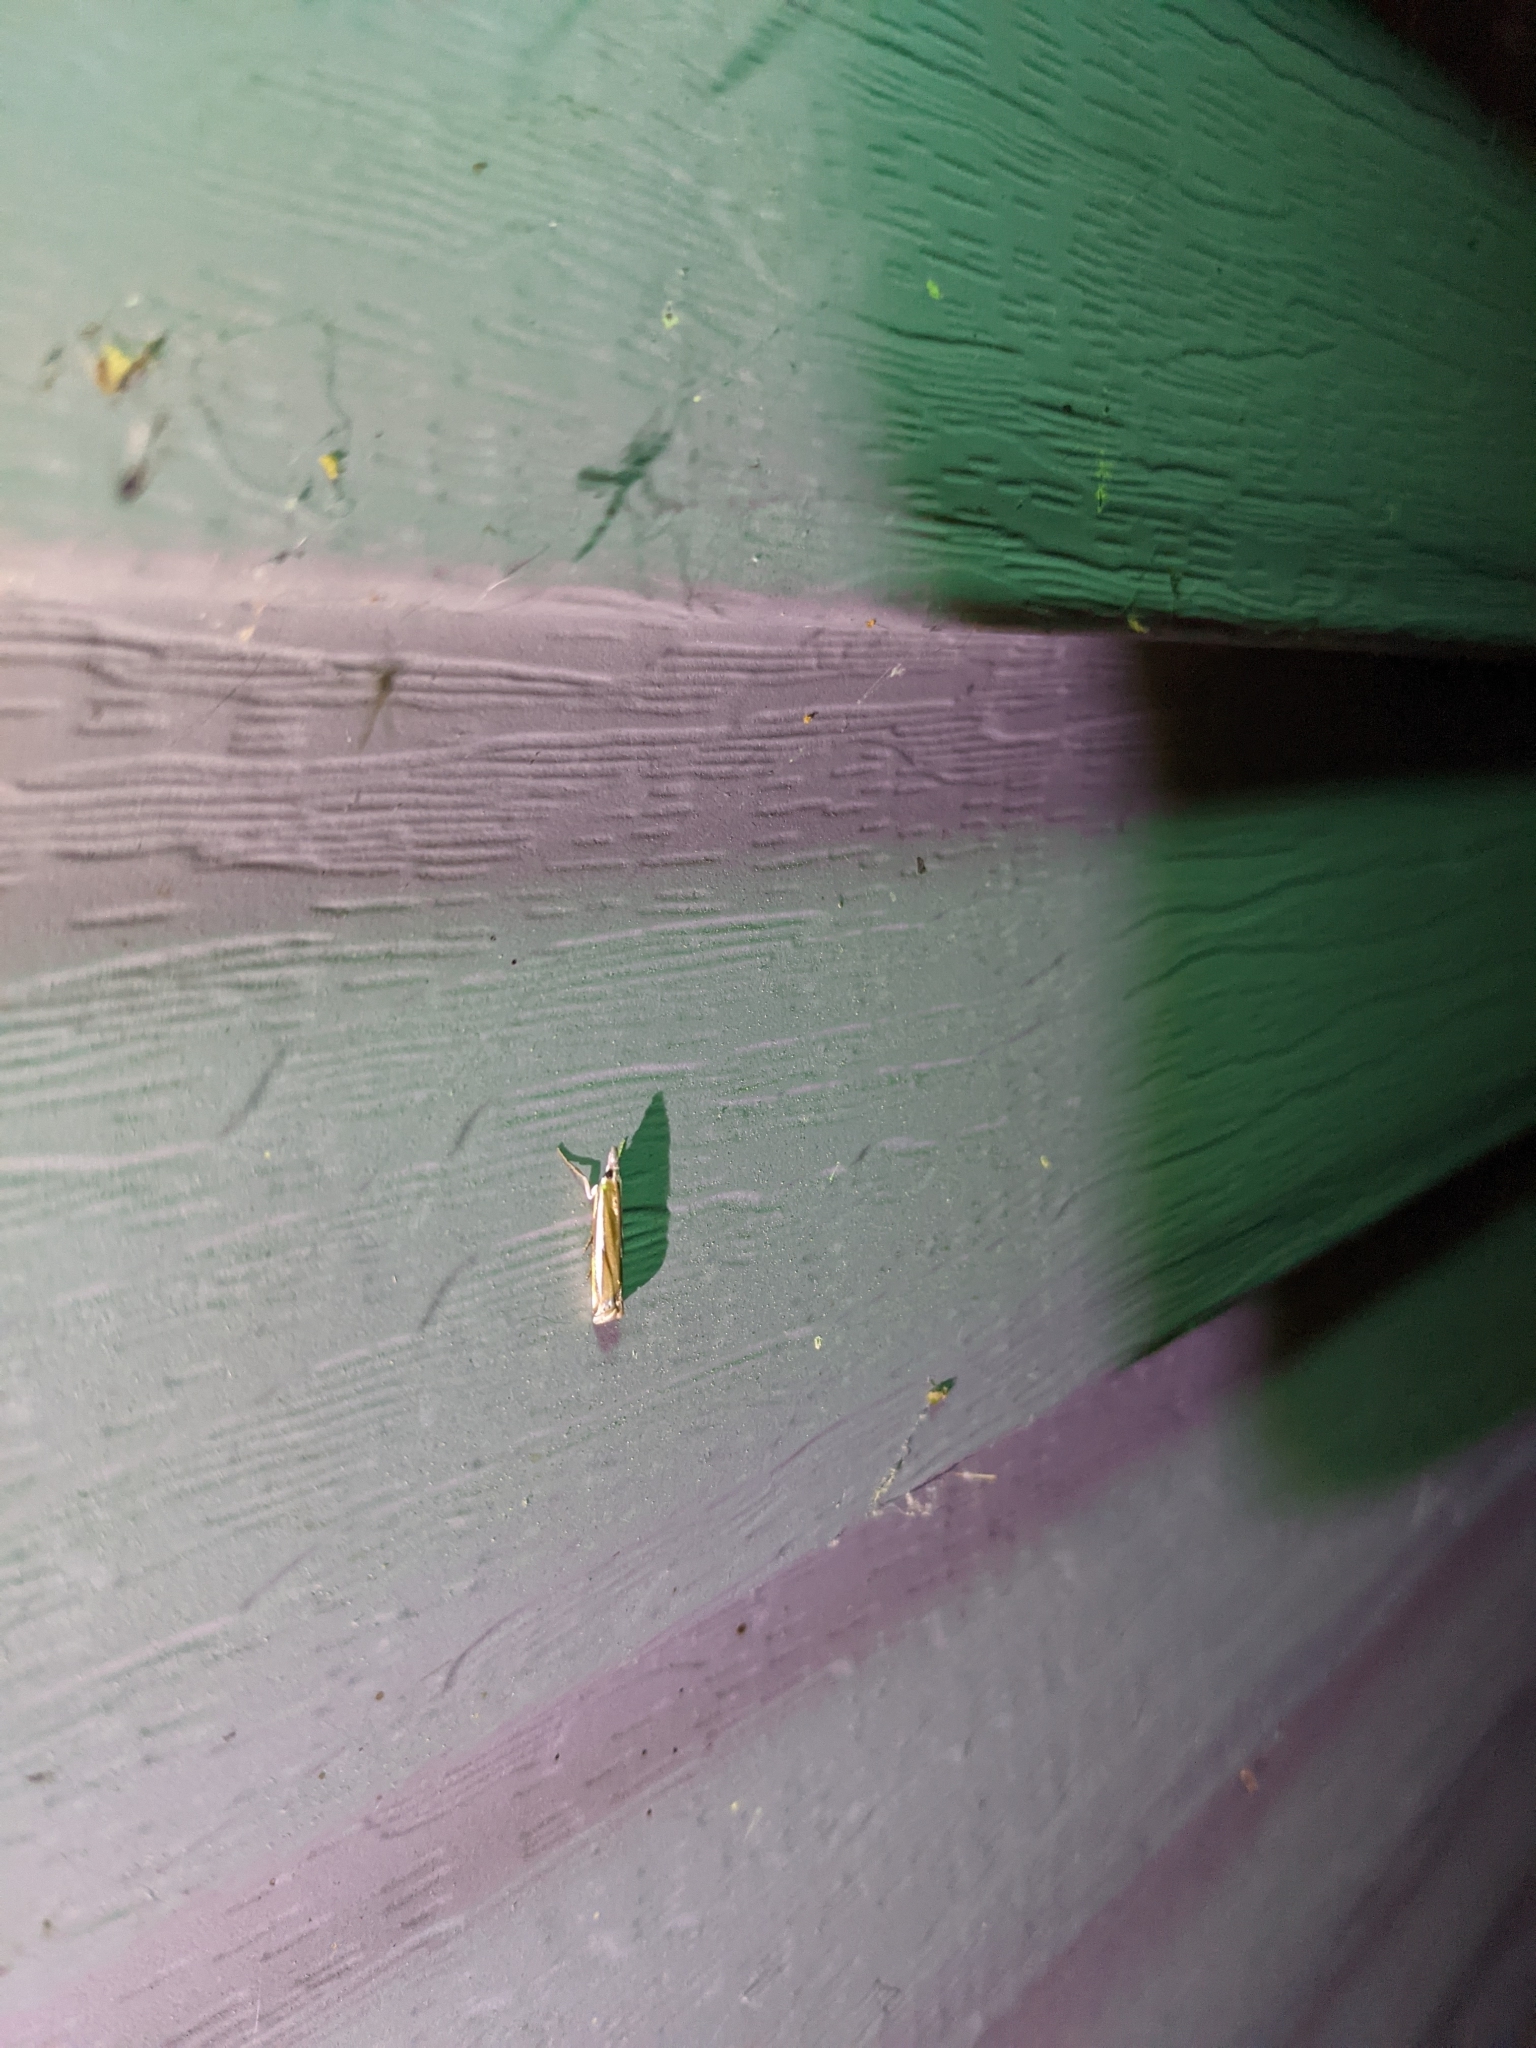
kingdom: Animalia
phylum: Arthropoda
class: Insecta
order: Lepidoptera
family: Crambidae
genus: Crambus
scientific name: Crambus praefectellus
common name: Common grass-veneer
